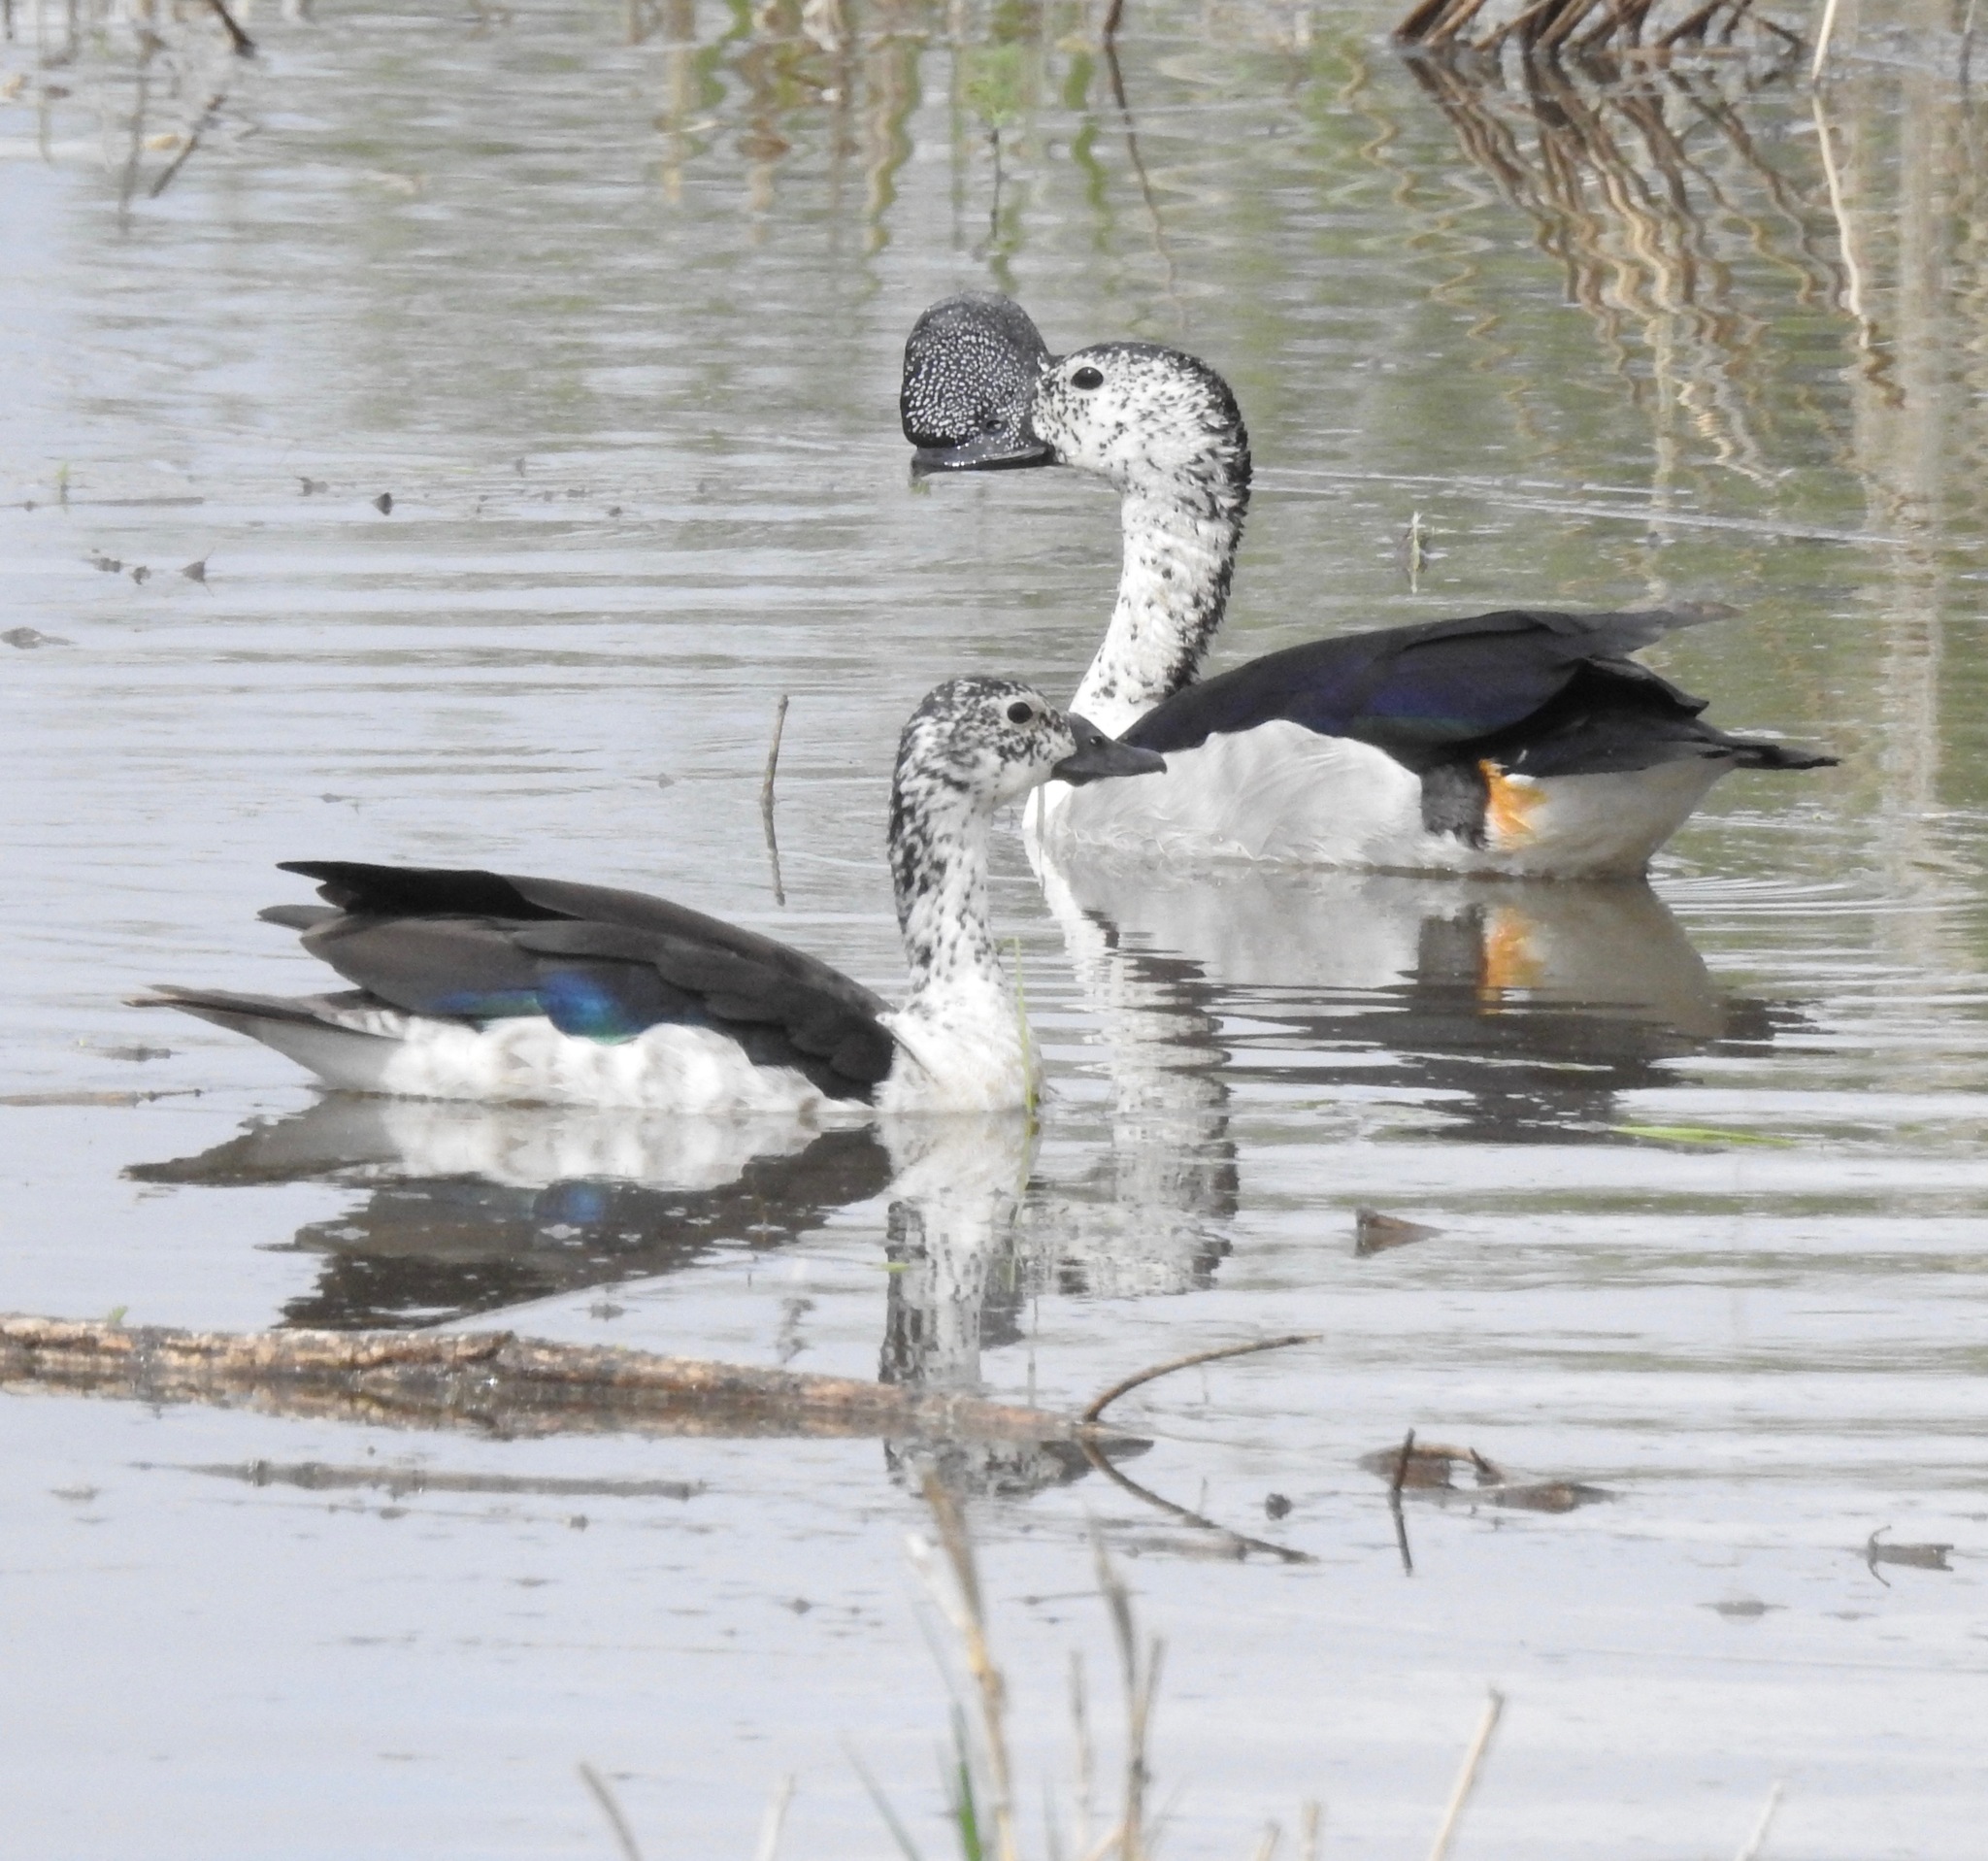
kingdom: Animalia
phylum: Chordata
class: Aves
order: Anseriformes
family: Anatidae
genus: Sarkidiornis
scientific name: Sarkidiornis melanotos
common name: Comb duck
